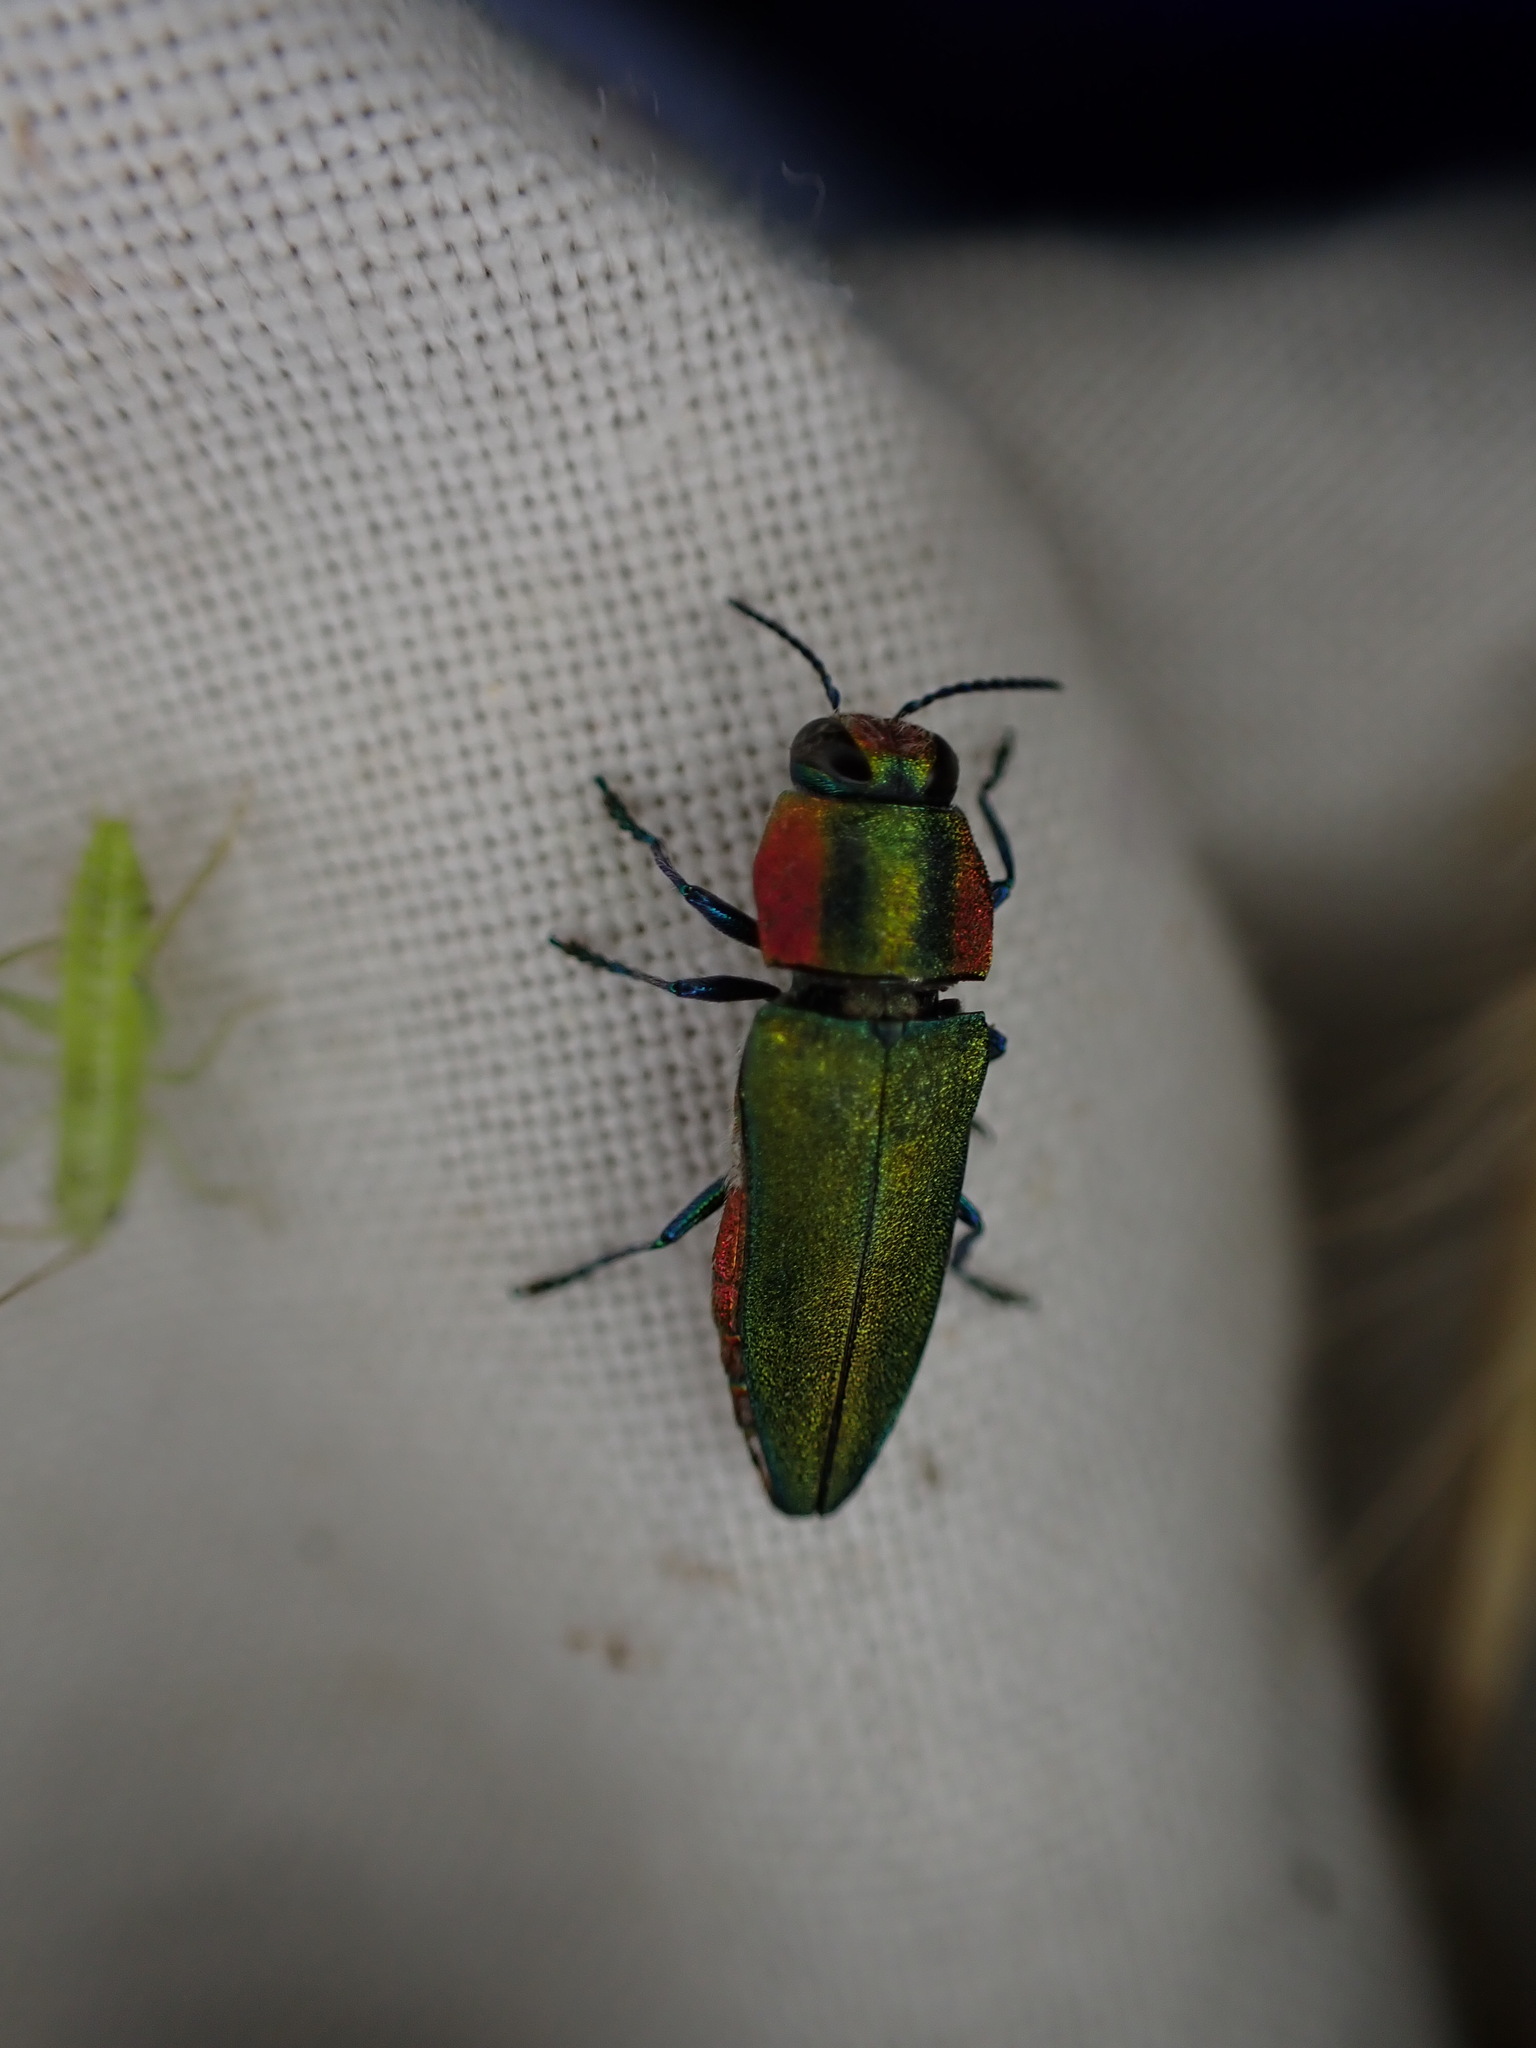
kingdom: Animalia
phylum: Arthropoda
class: Insecta
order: Coleoptera
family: Buprestidae
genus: Anthaxia
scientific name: Anthaxia hungarica
